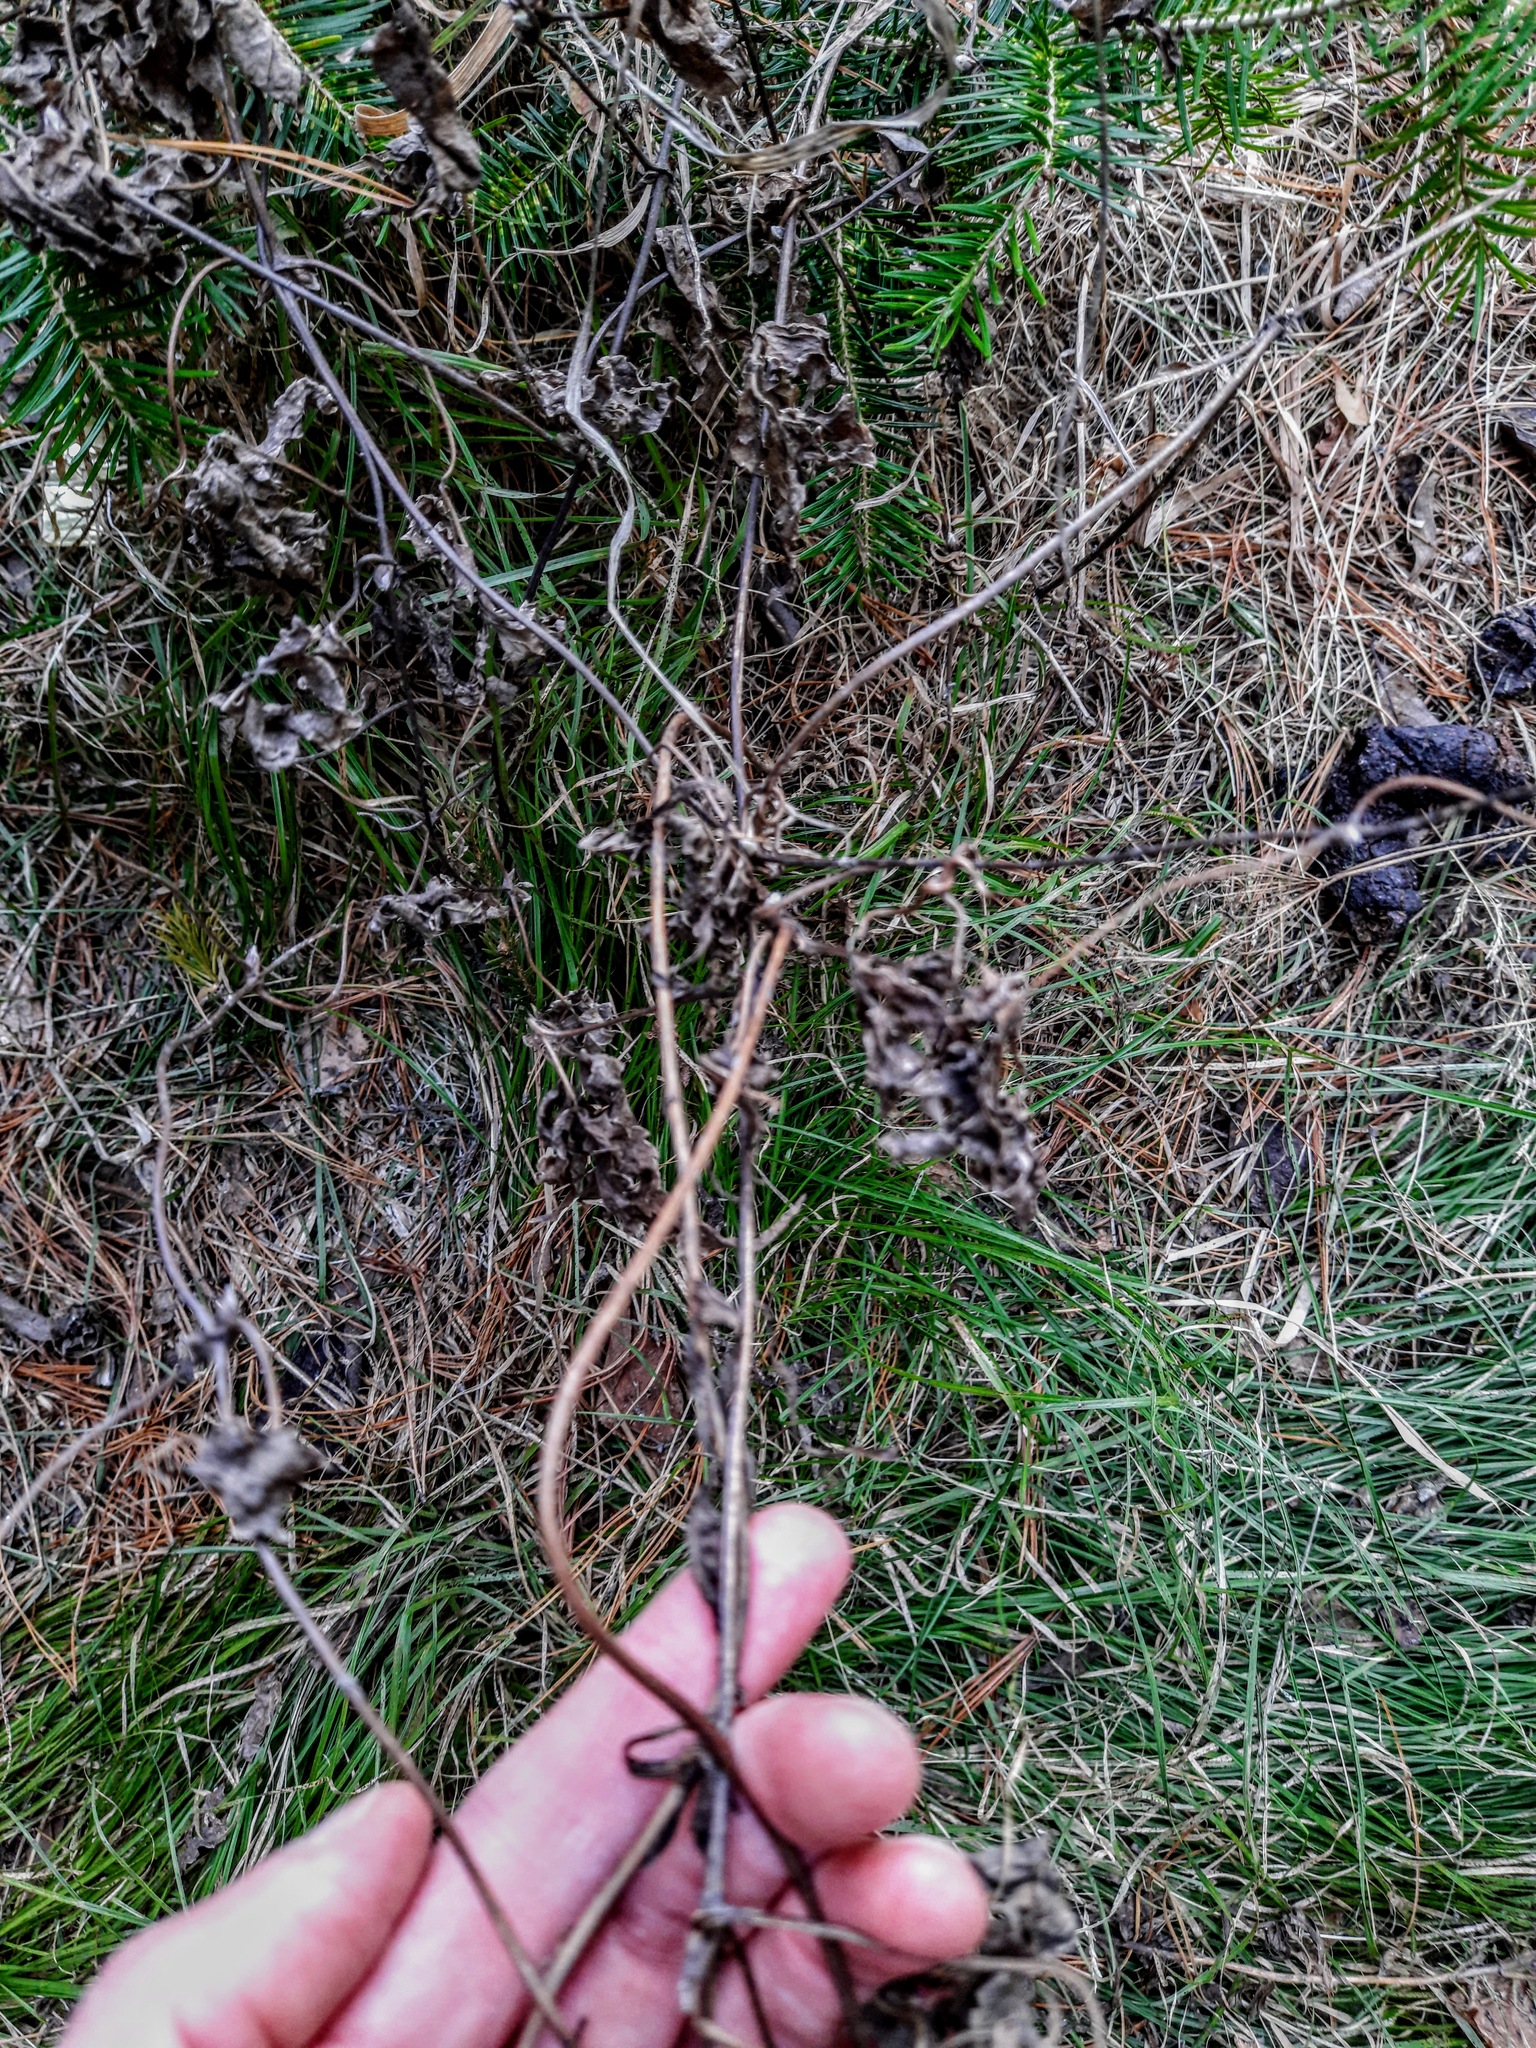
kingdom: Plantae
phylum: Tracheophyta
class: Magnoliopsida
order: Ranunculales
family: Ranunculaceae
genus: Clematis
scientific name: Clematis sibirica
